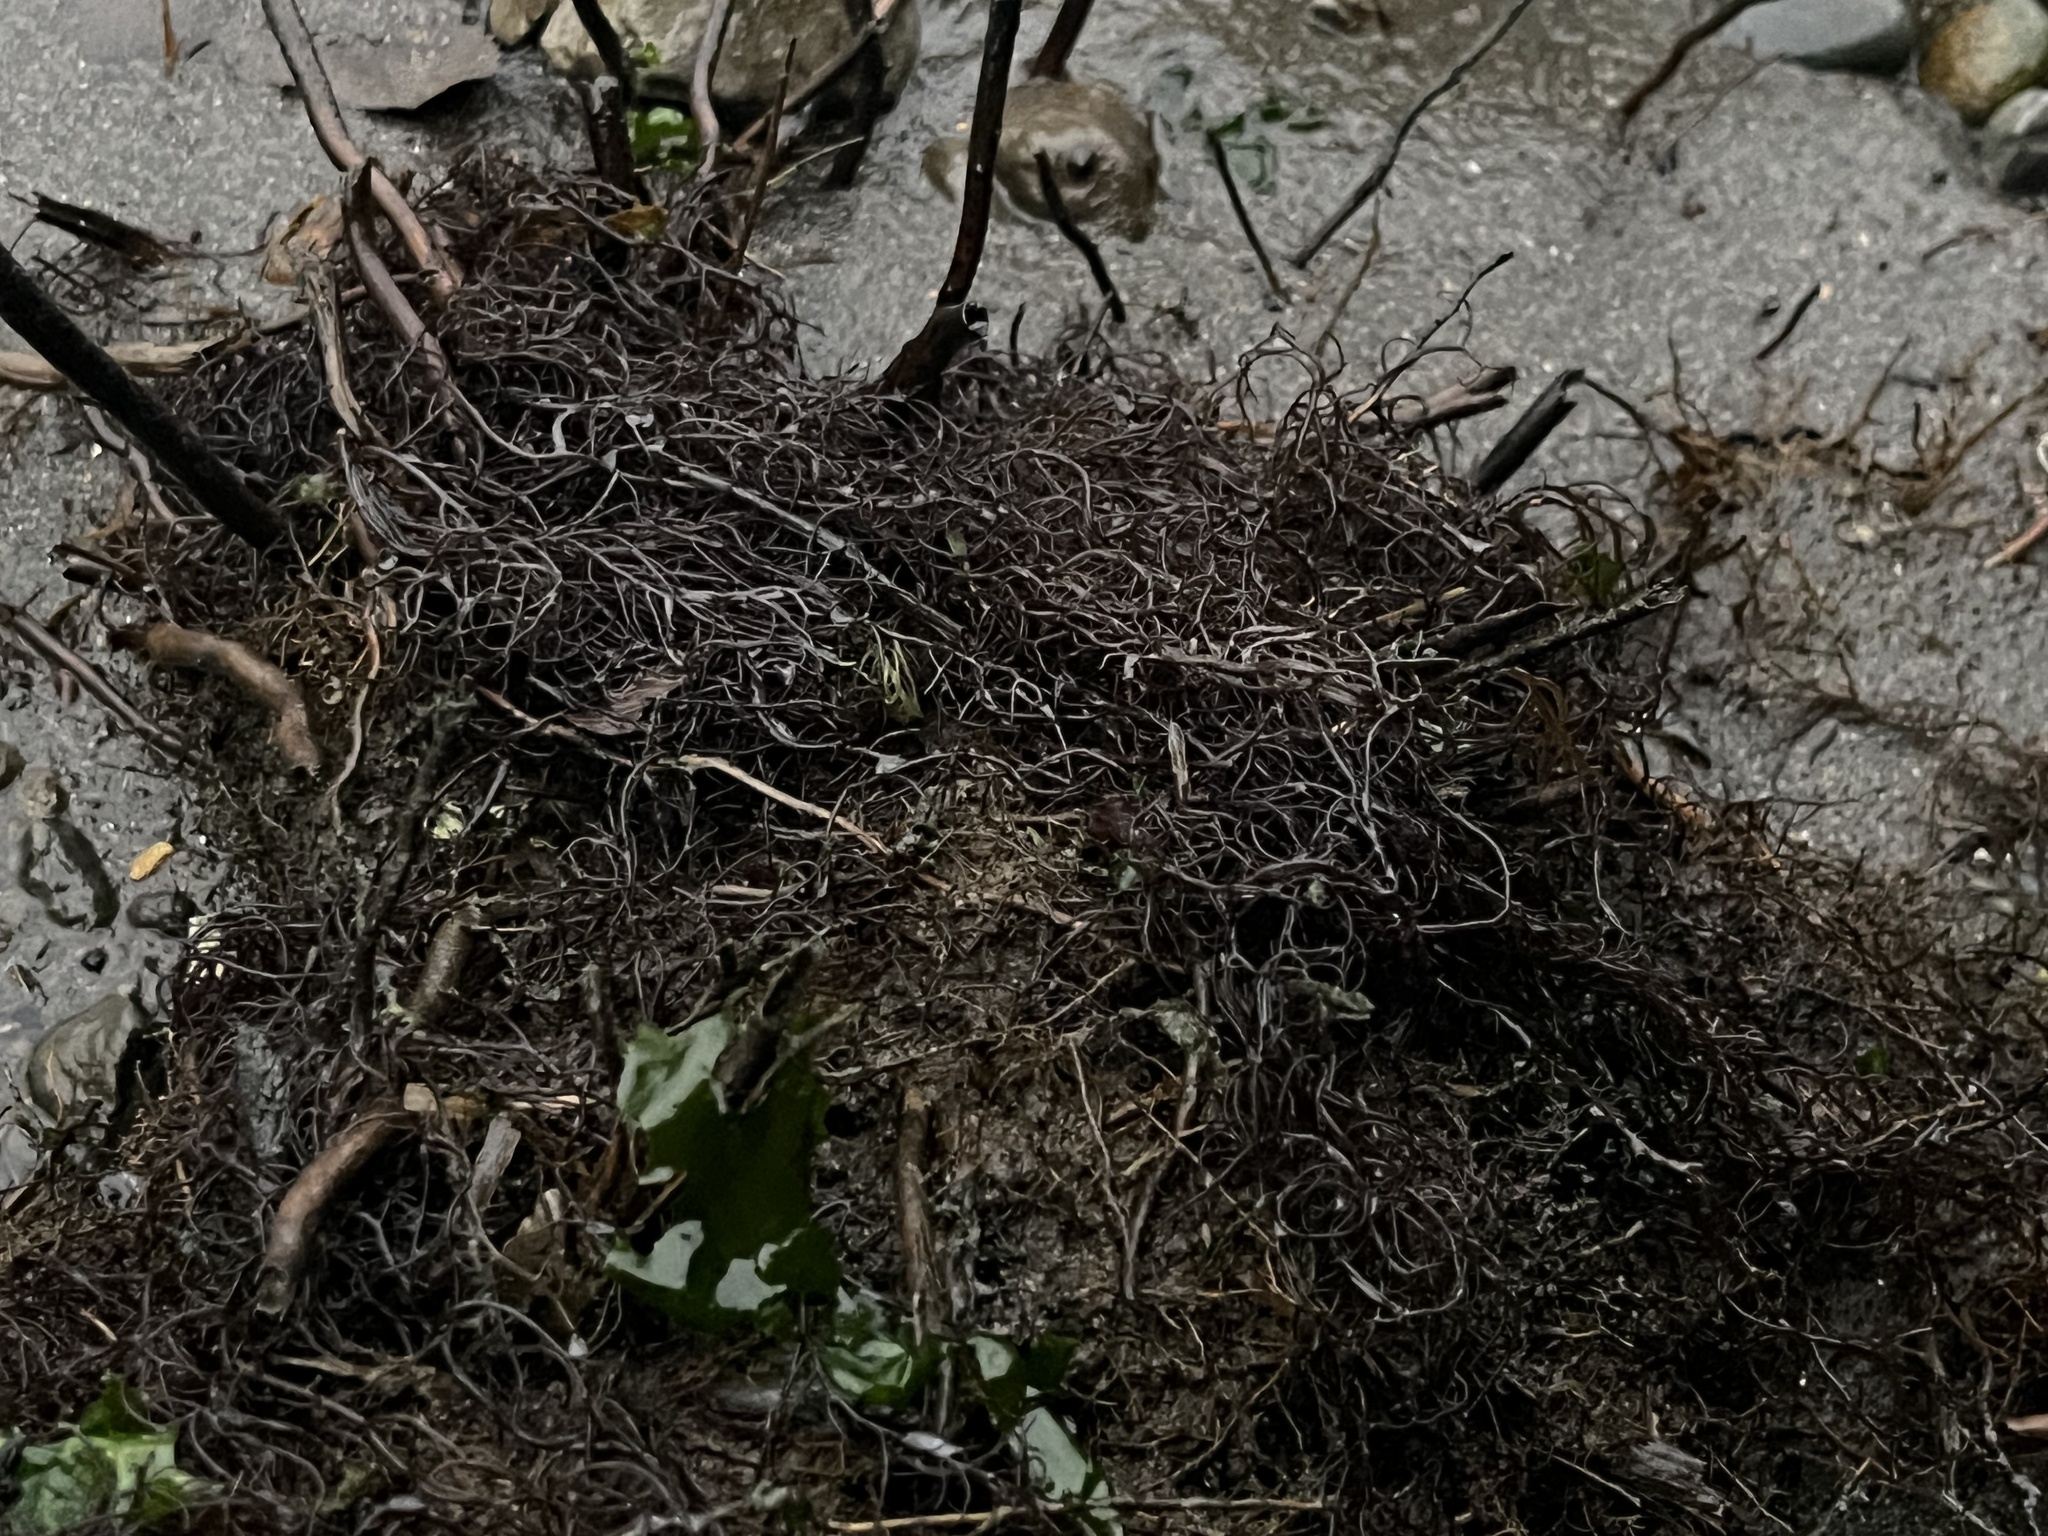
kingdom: Plantae
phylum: Rhodophyta
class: Florideophyceae
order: Gracilariales
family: Gracilariaceae
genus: Gracilaria
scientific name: Gracilaria chilensis
